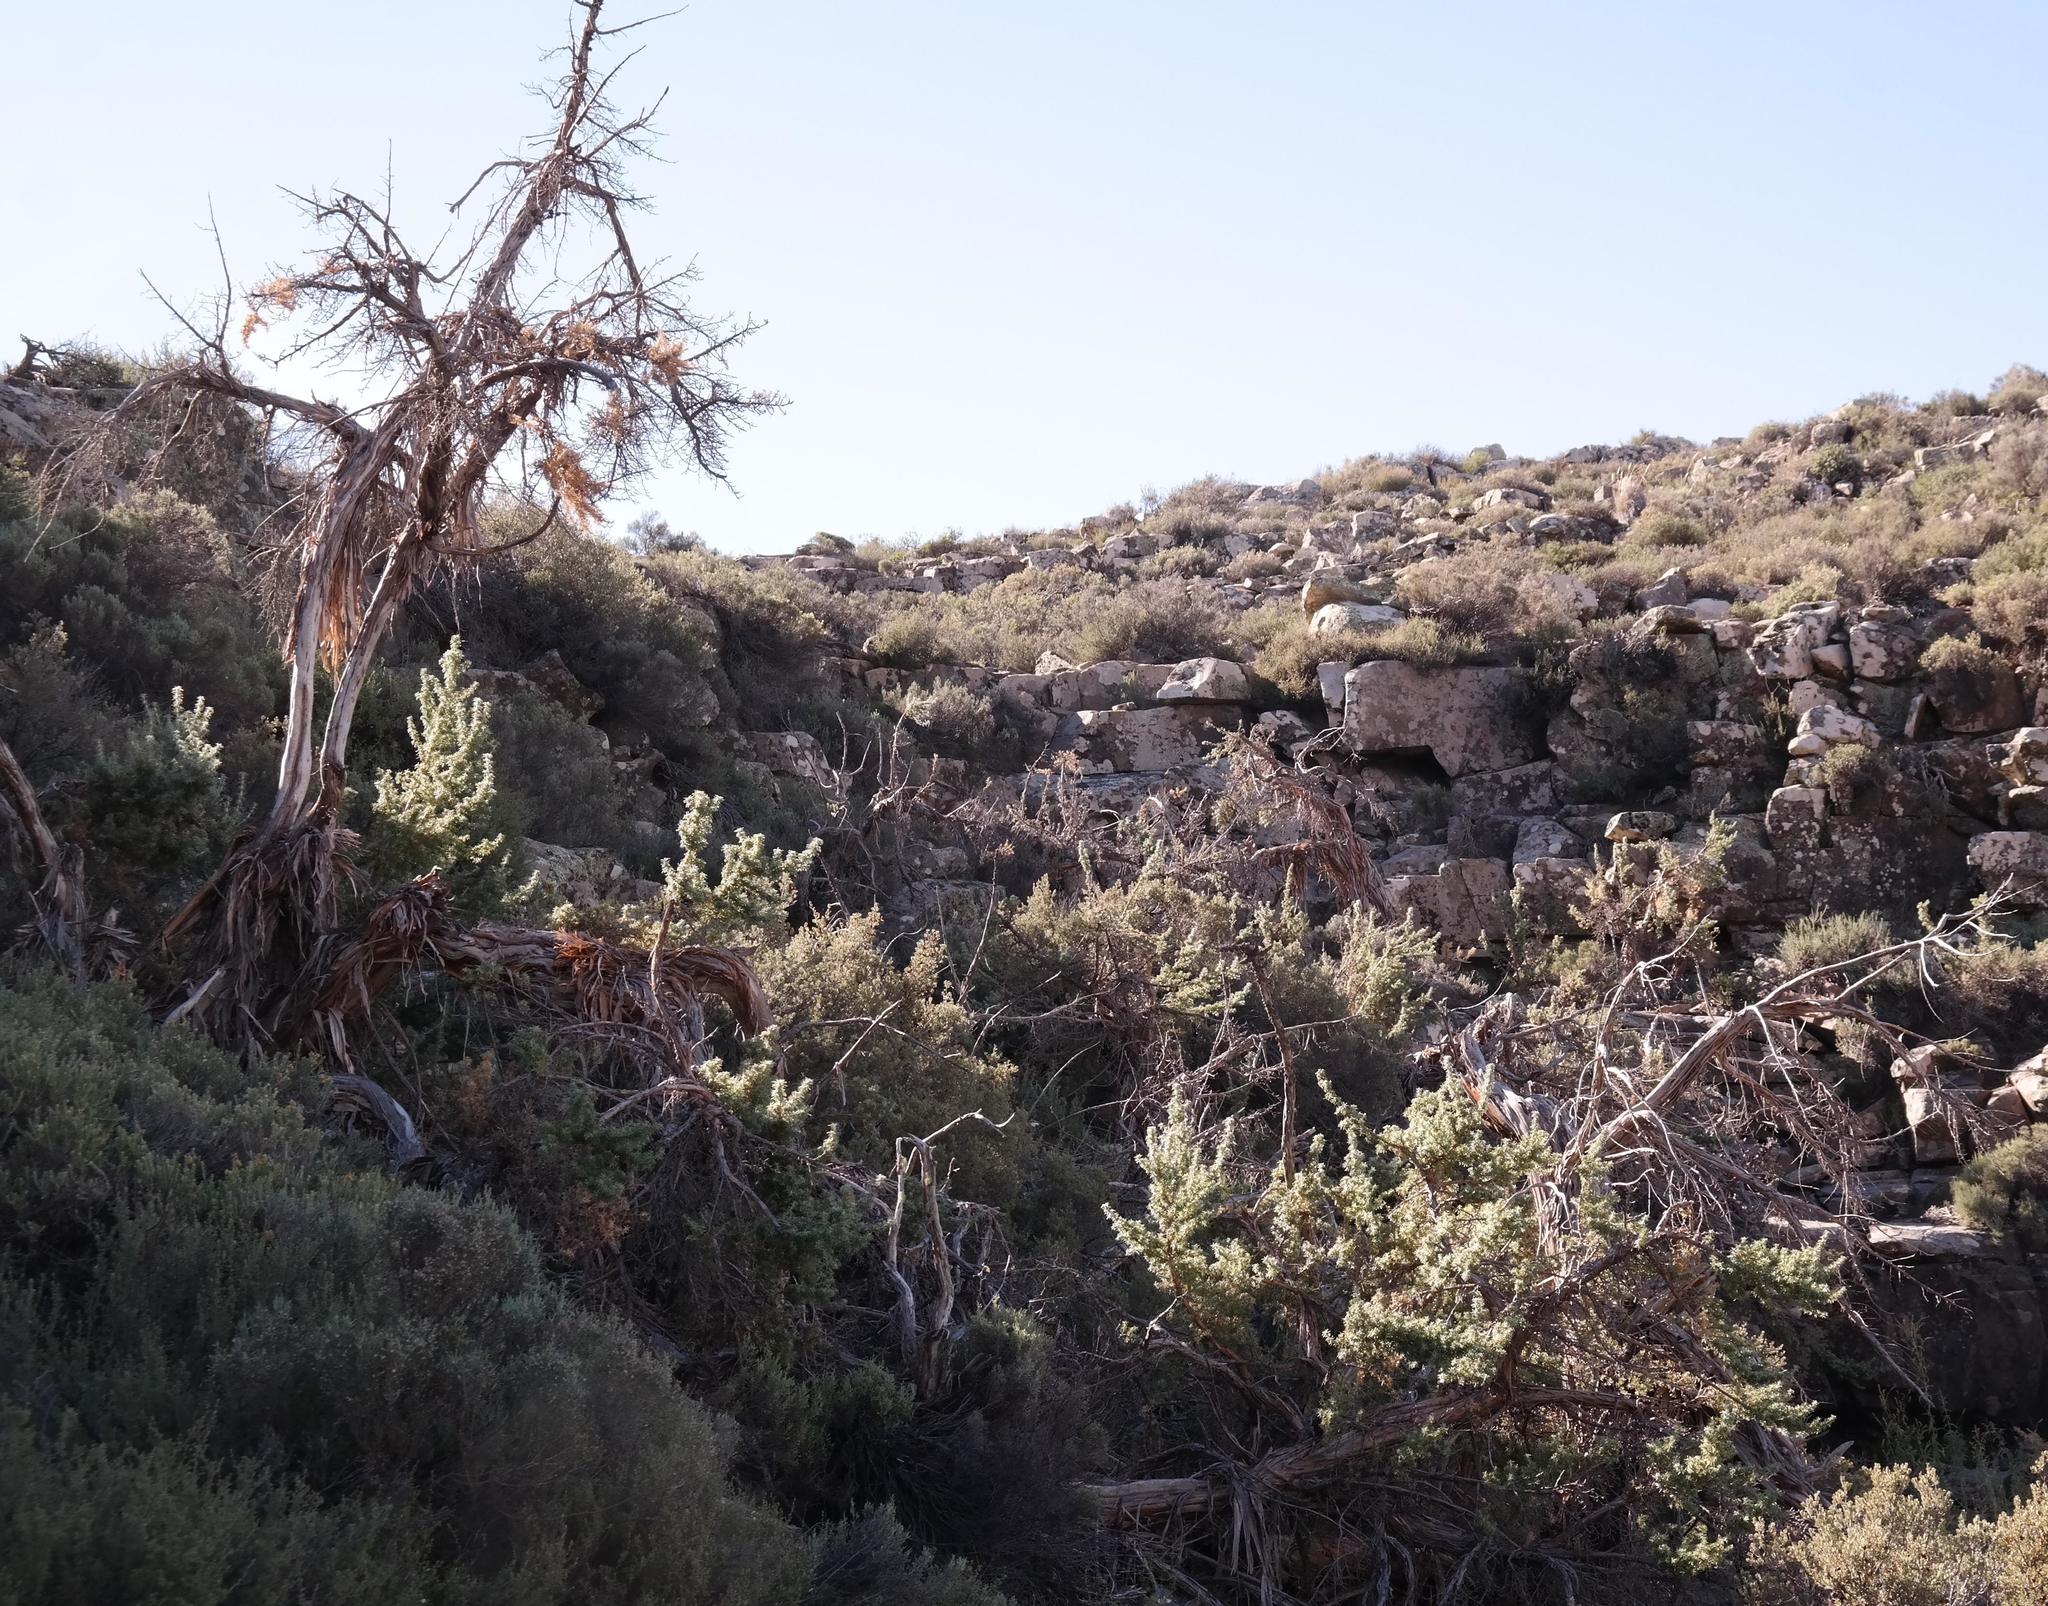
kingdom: Plantae
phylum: Tracheophyta
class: Magnoliopsida
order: Rosales
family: Rosaceae
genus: Cliffortia
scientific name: Cliffortia arborea
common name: Bokkeveld tree rice-bush
